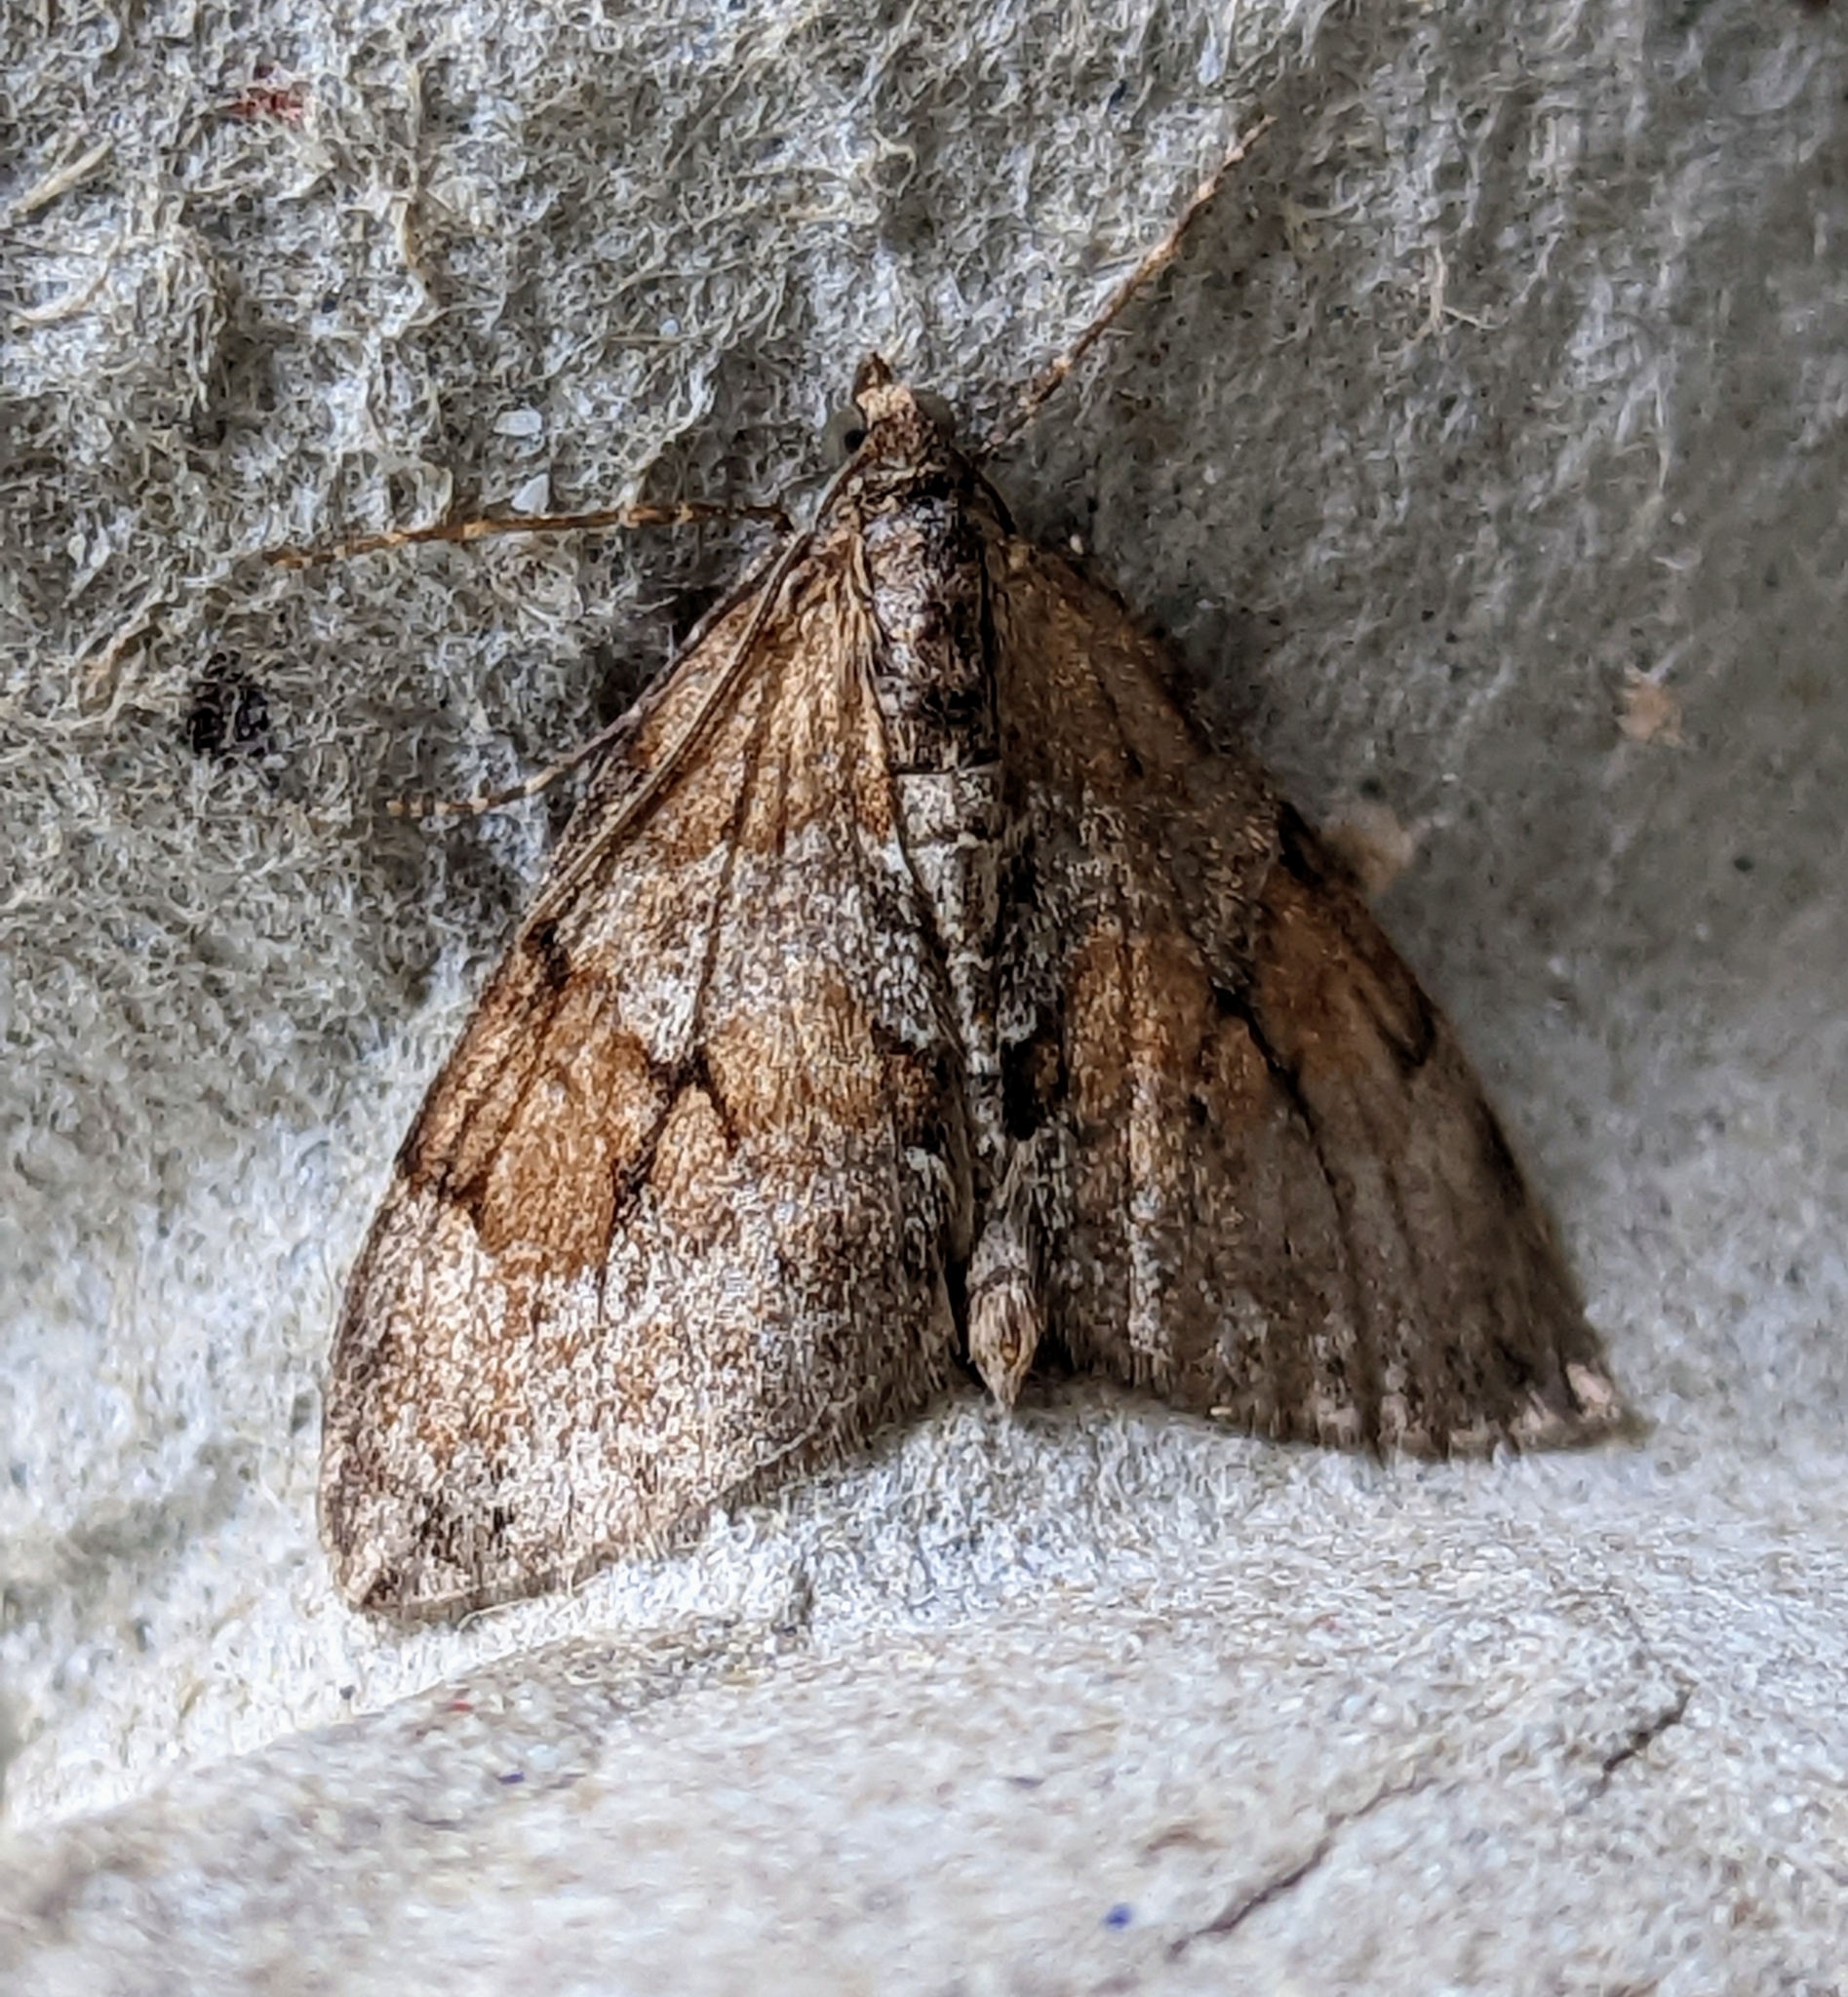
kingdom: Animalia
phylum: Arthropoda
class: Insecta
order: Lepidoptera
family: Geometridae
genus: Thera
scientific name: Thera obeliscata
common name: Grey pine carpet
